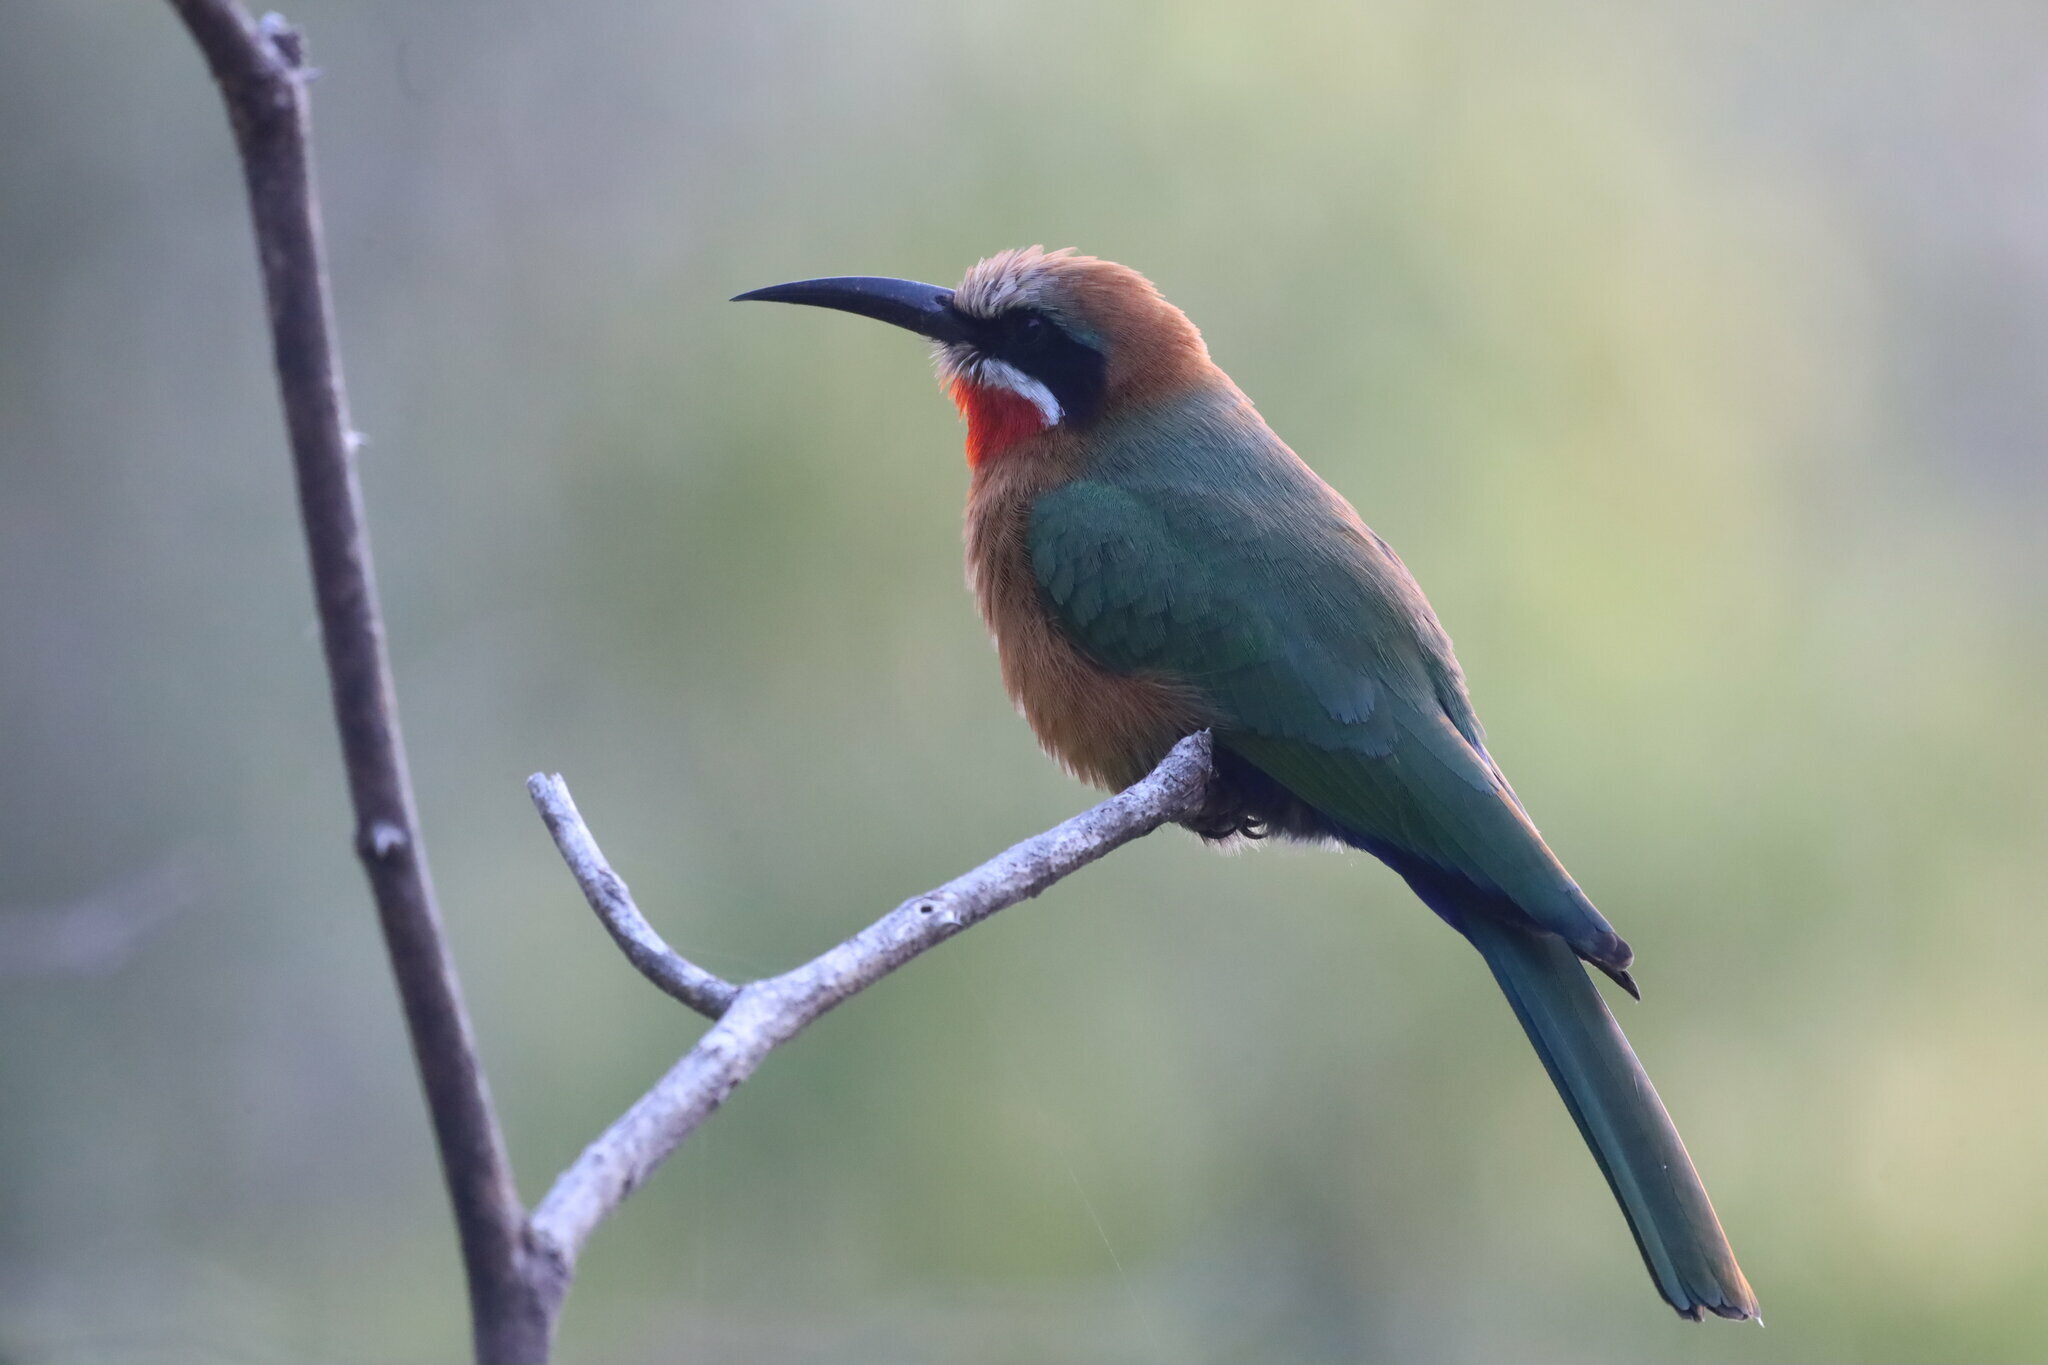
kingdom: Animalia
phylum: Chordata
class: Aves
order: Coraciiformes
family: Meropidae
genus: Merops
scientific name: Merops bullockoides
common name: White-fronted bee-eater
